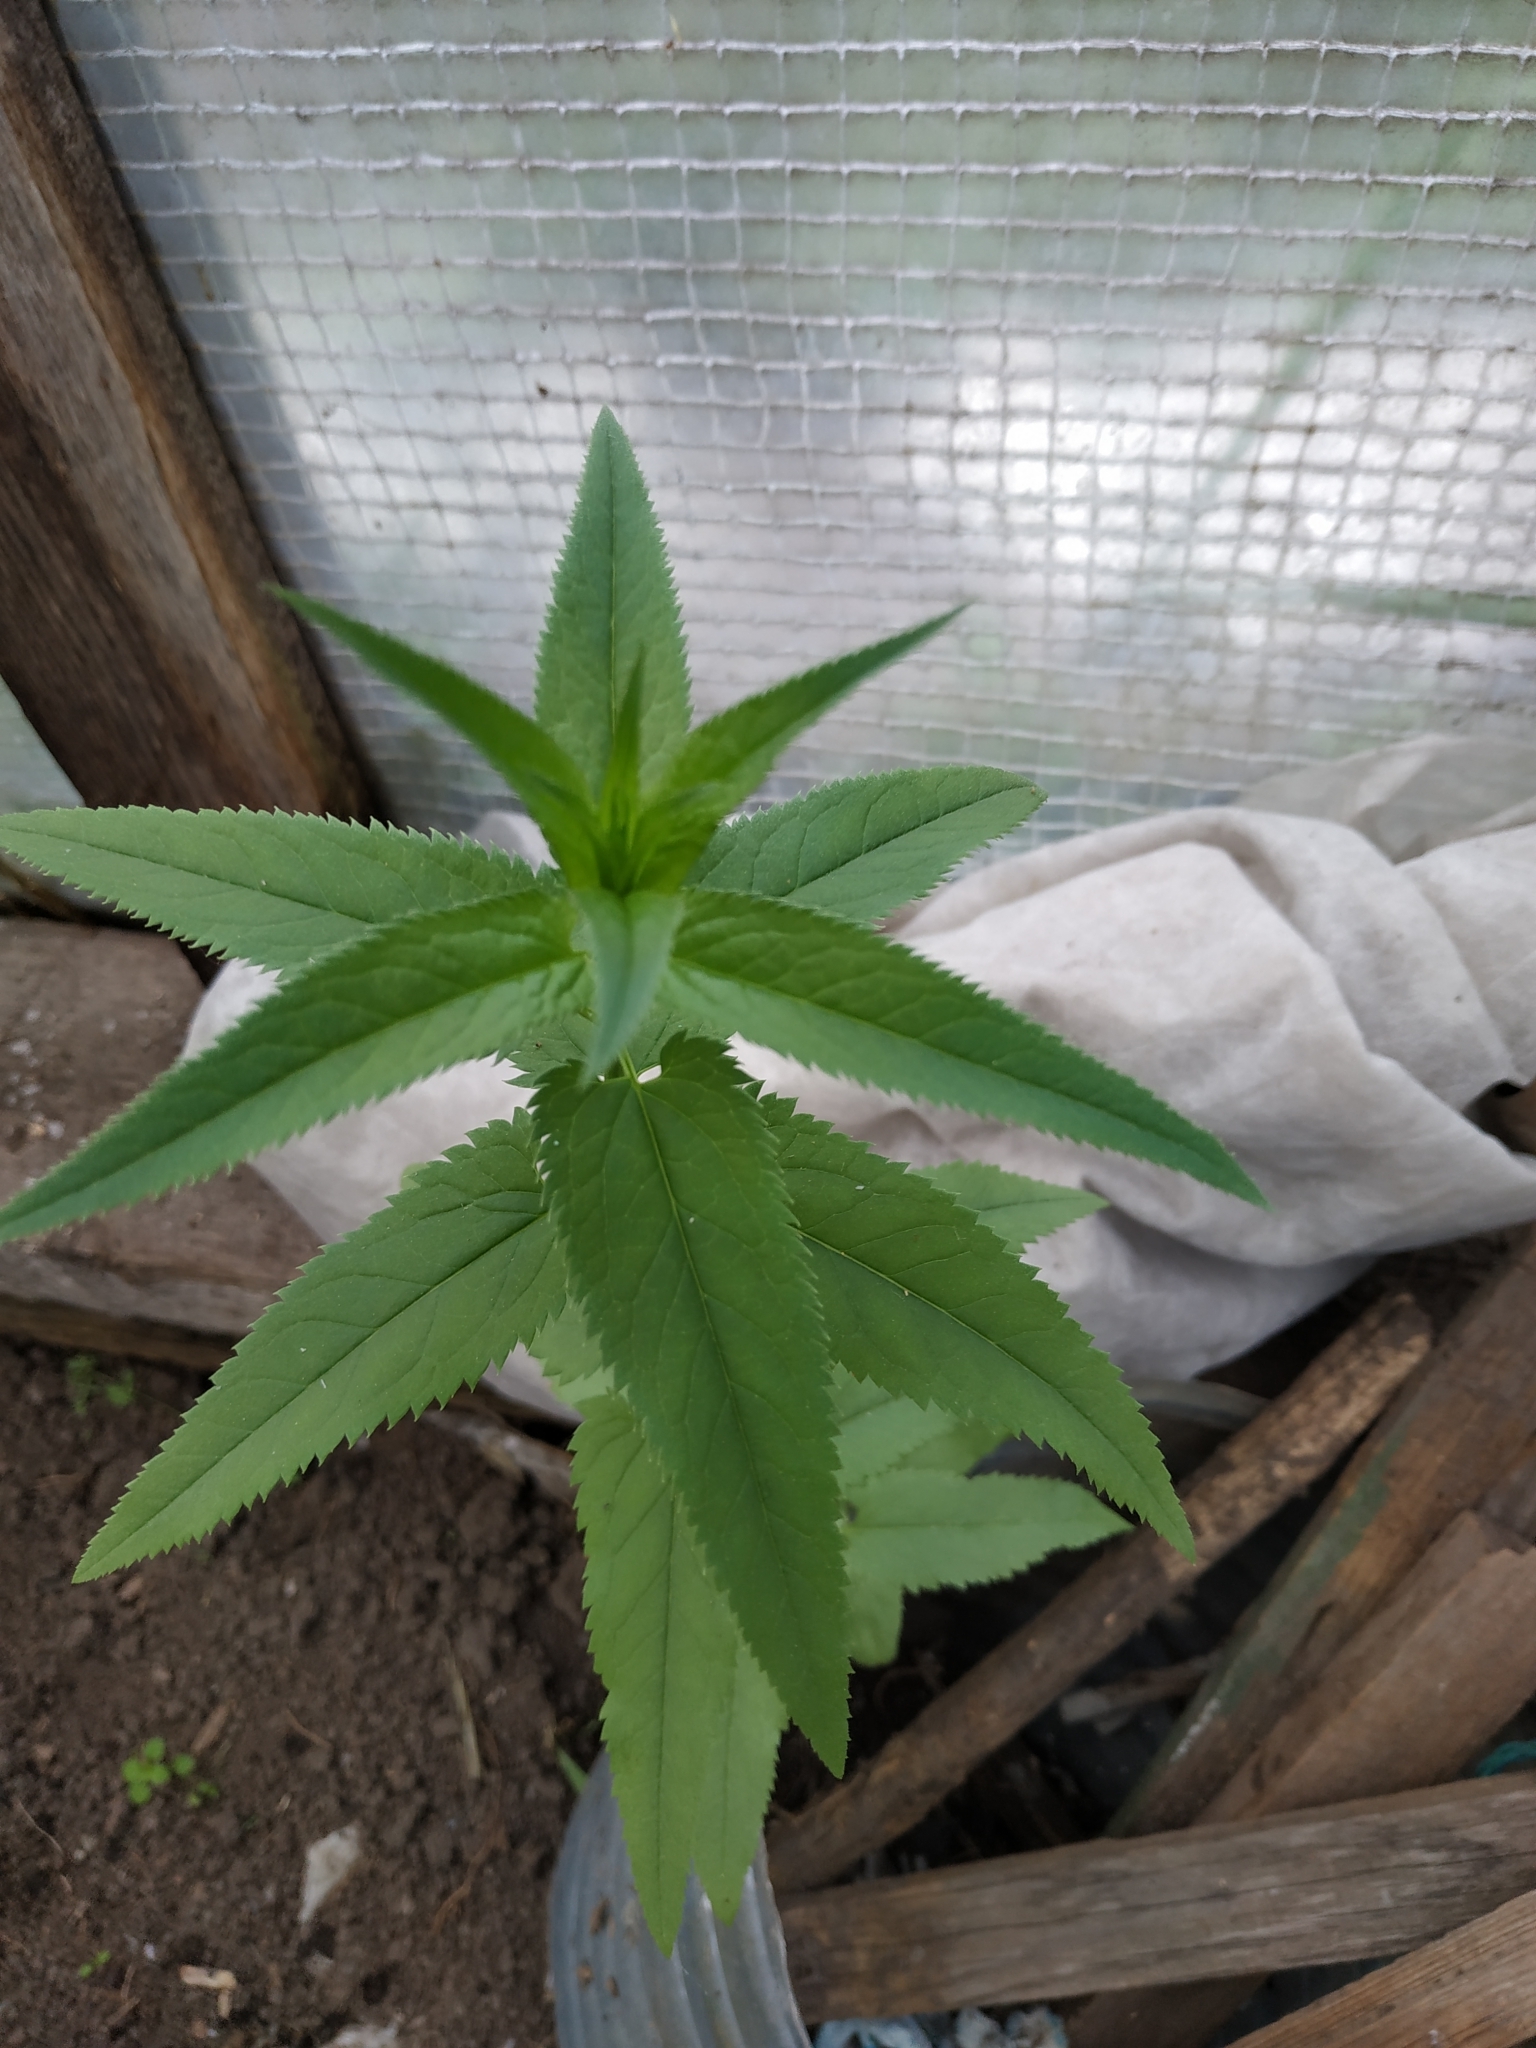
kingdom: Plantae
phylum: Tracheophyta
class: Magnoliopsida
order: Lamiales
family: Plantaginaceae
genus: Veronica
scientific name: Veronica longifolia
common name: Garden speedwell
